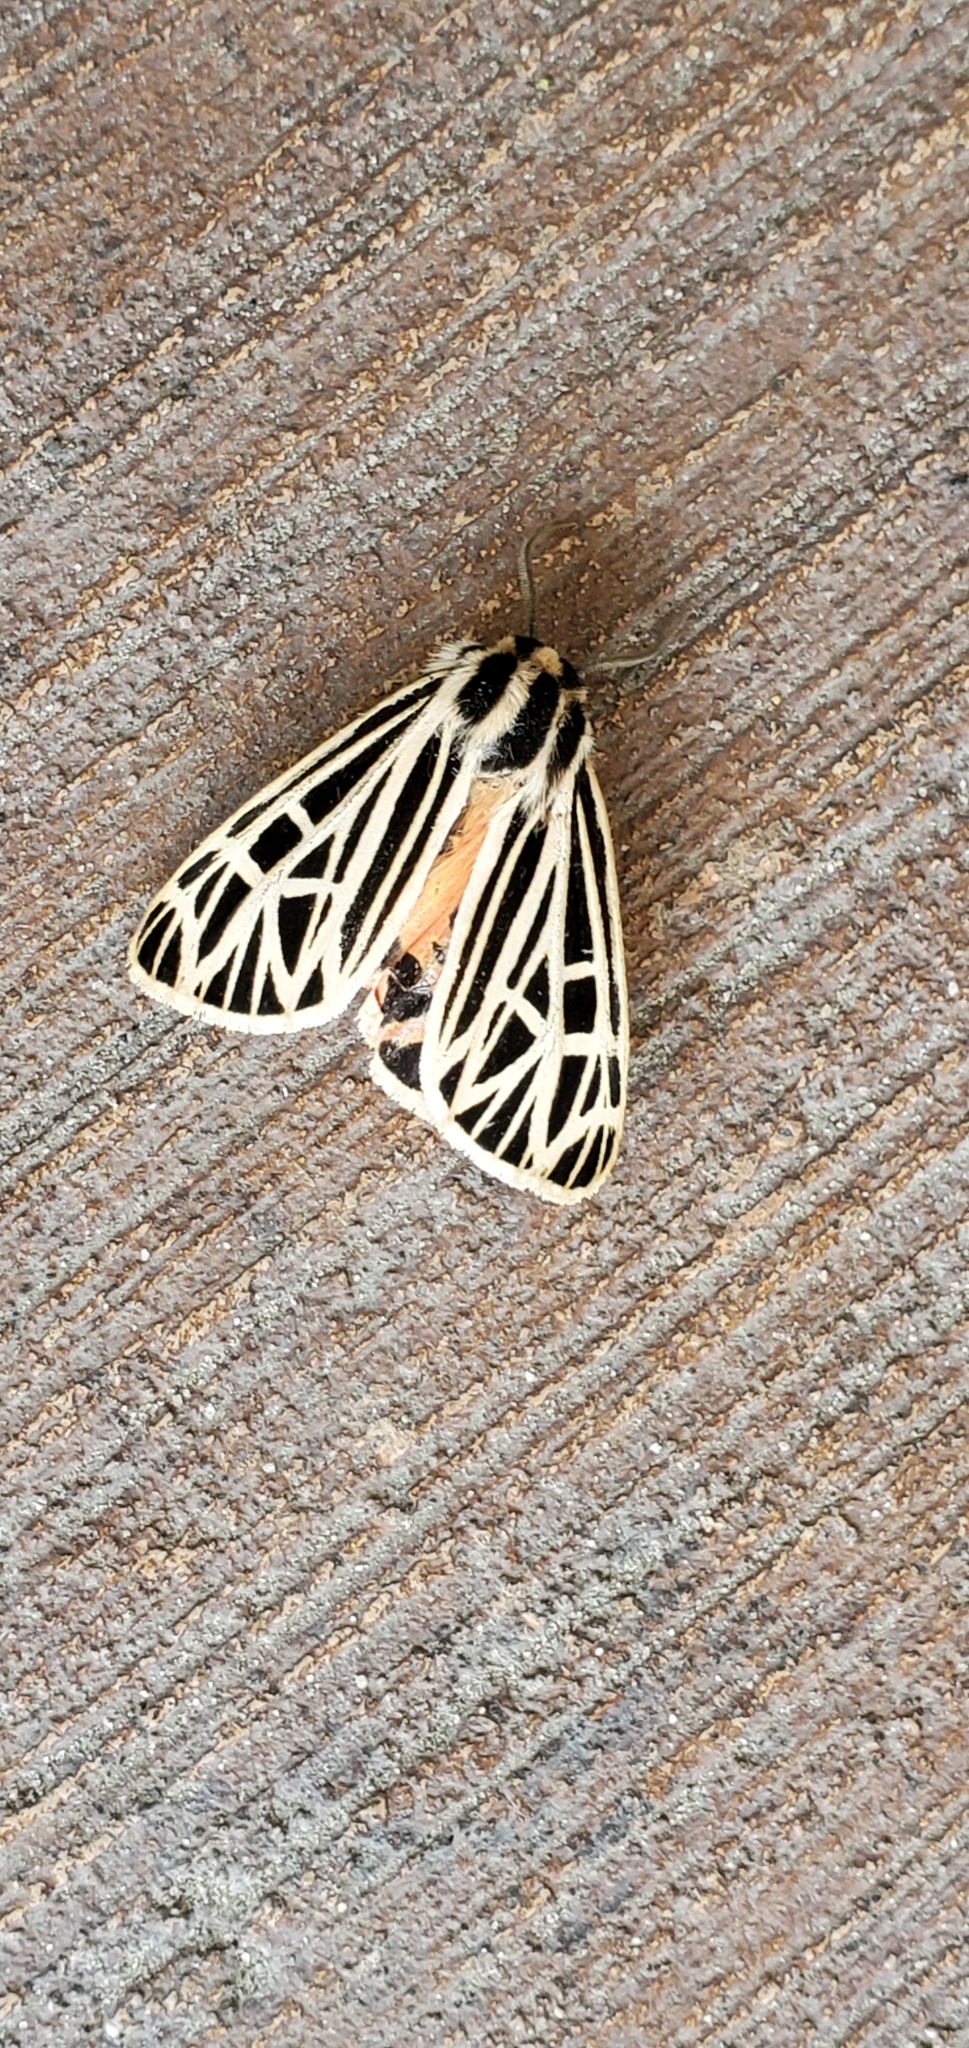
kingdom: Animalia
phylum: Arthropoda
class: Insecta
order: Lepidoptera
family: Erebidae
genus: Grammia
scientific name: Grammia virgo
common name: Virgin tiger moth
